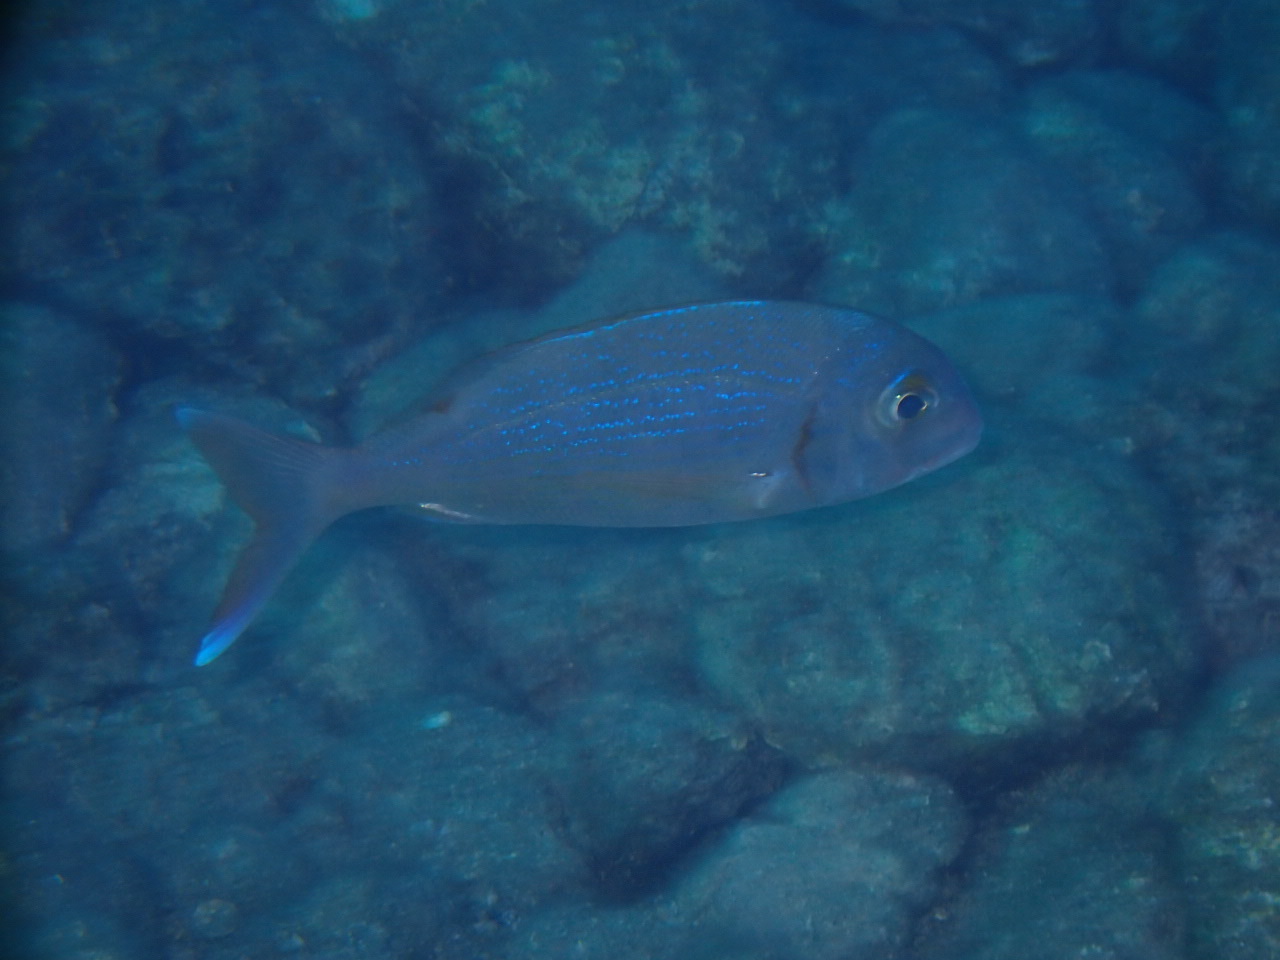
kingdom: Animalia
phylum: Chordata
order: Perciformes
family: Sparidae
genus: Pagrus
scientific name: Pagrus pagrus
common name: Red porgy
